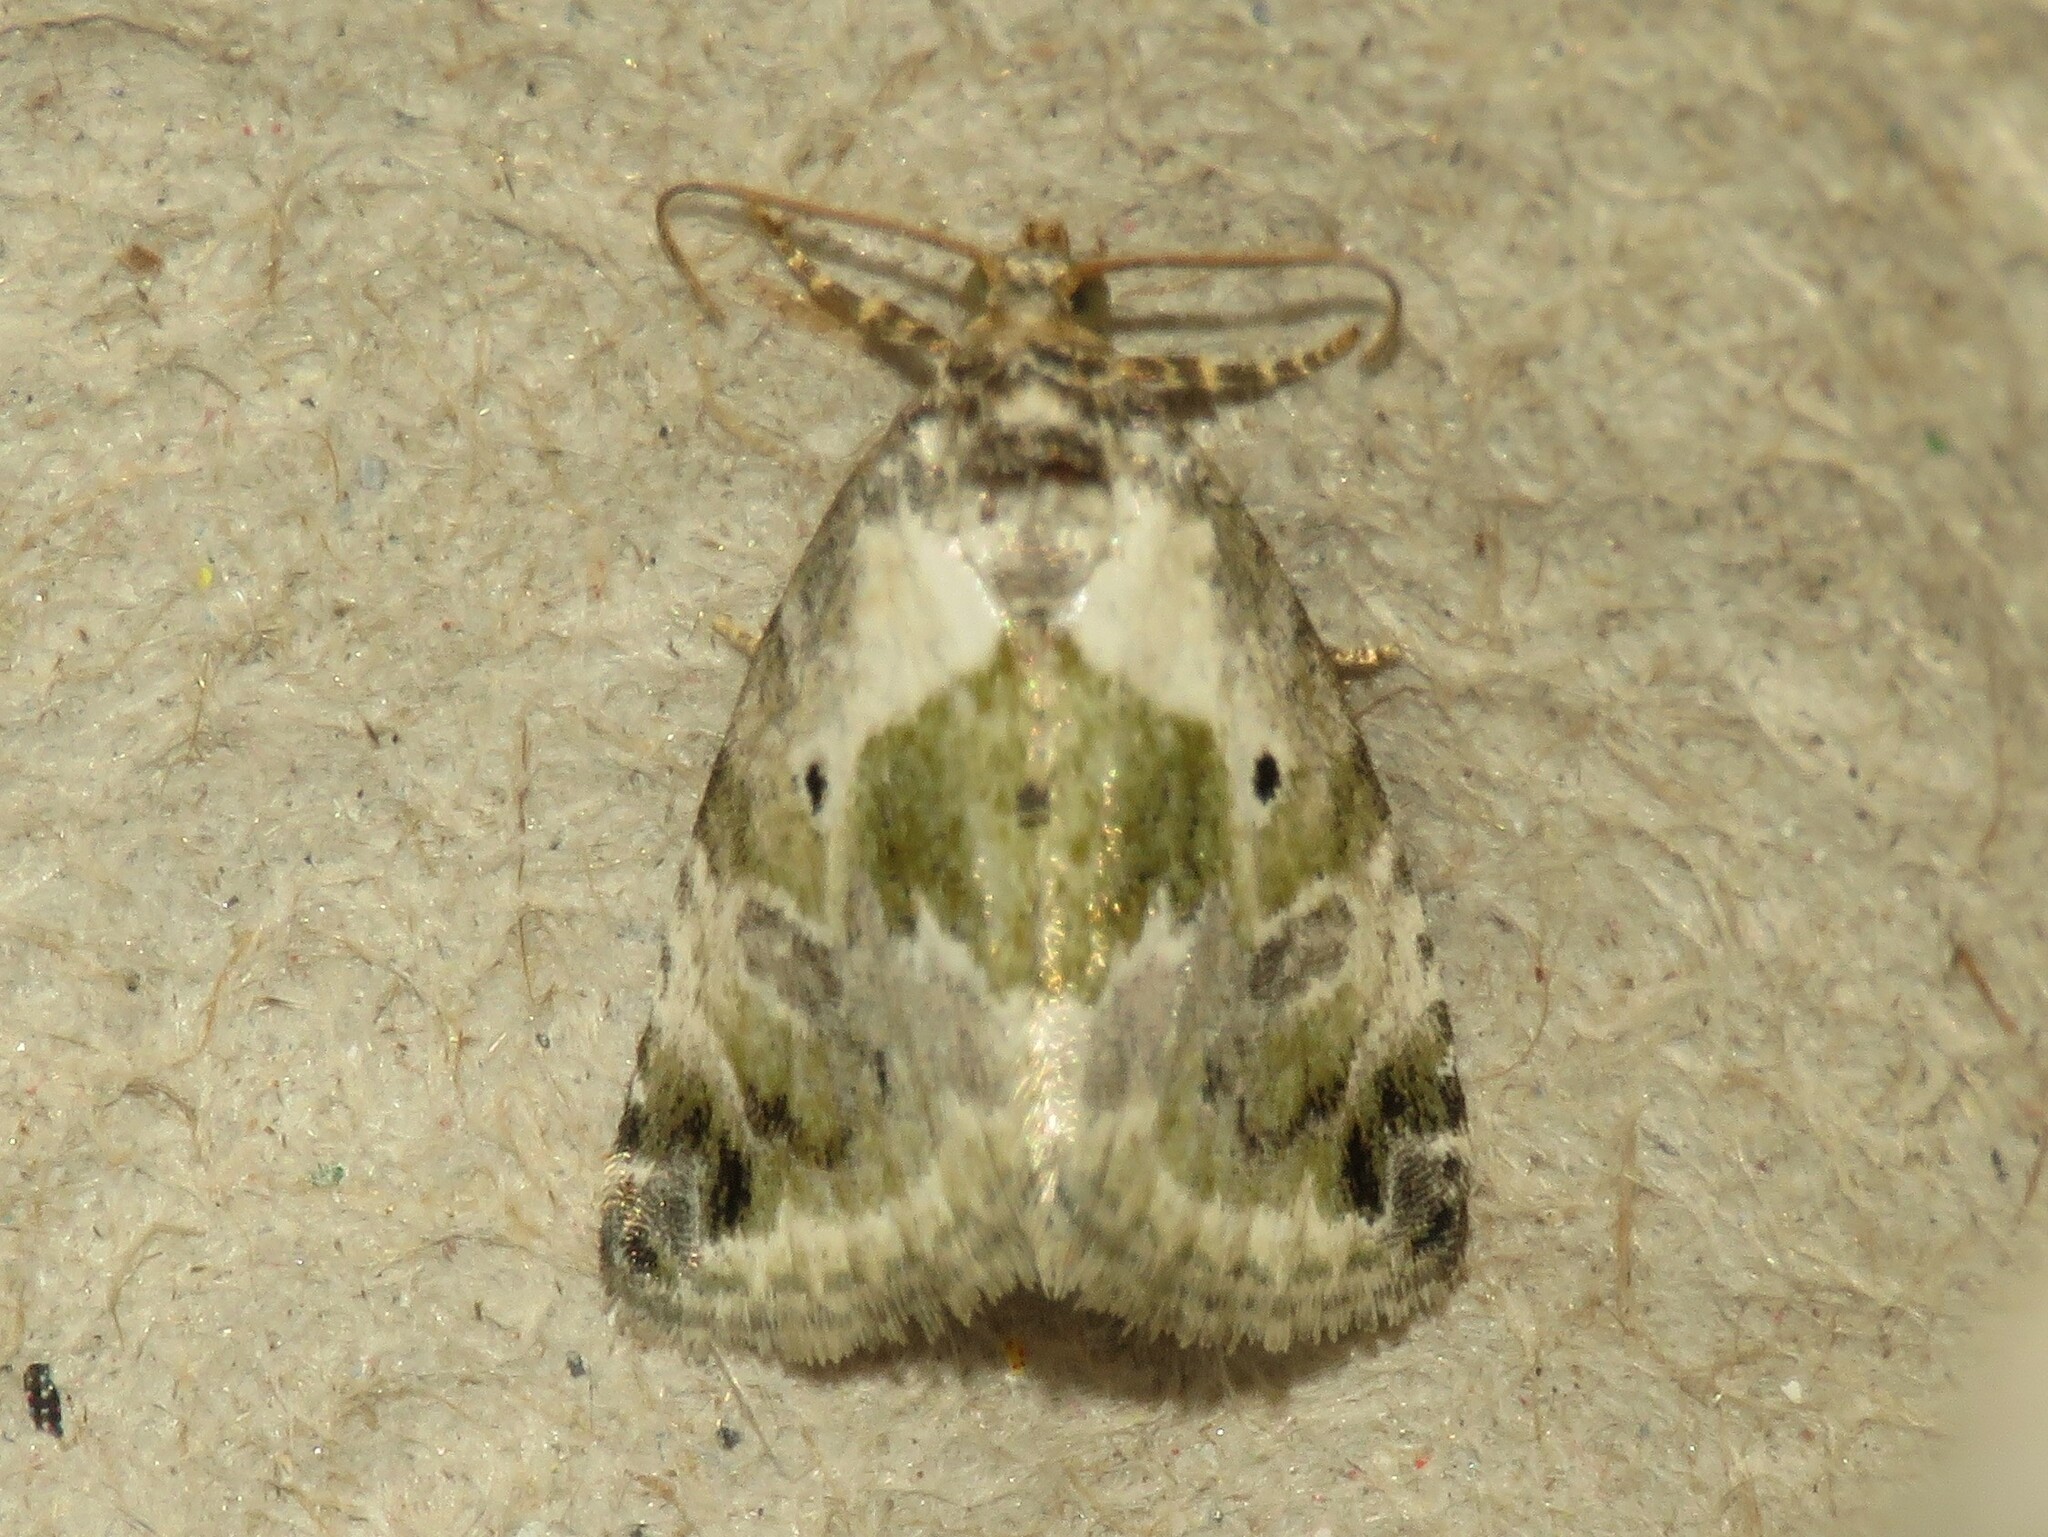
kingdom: Animalia
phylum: Arthropoda
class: Insecta
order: Lepidoptera
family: Noctuidae
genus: Maliattha
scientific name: Maliattha synochitis
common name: Black-dotted glyph
